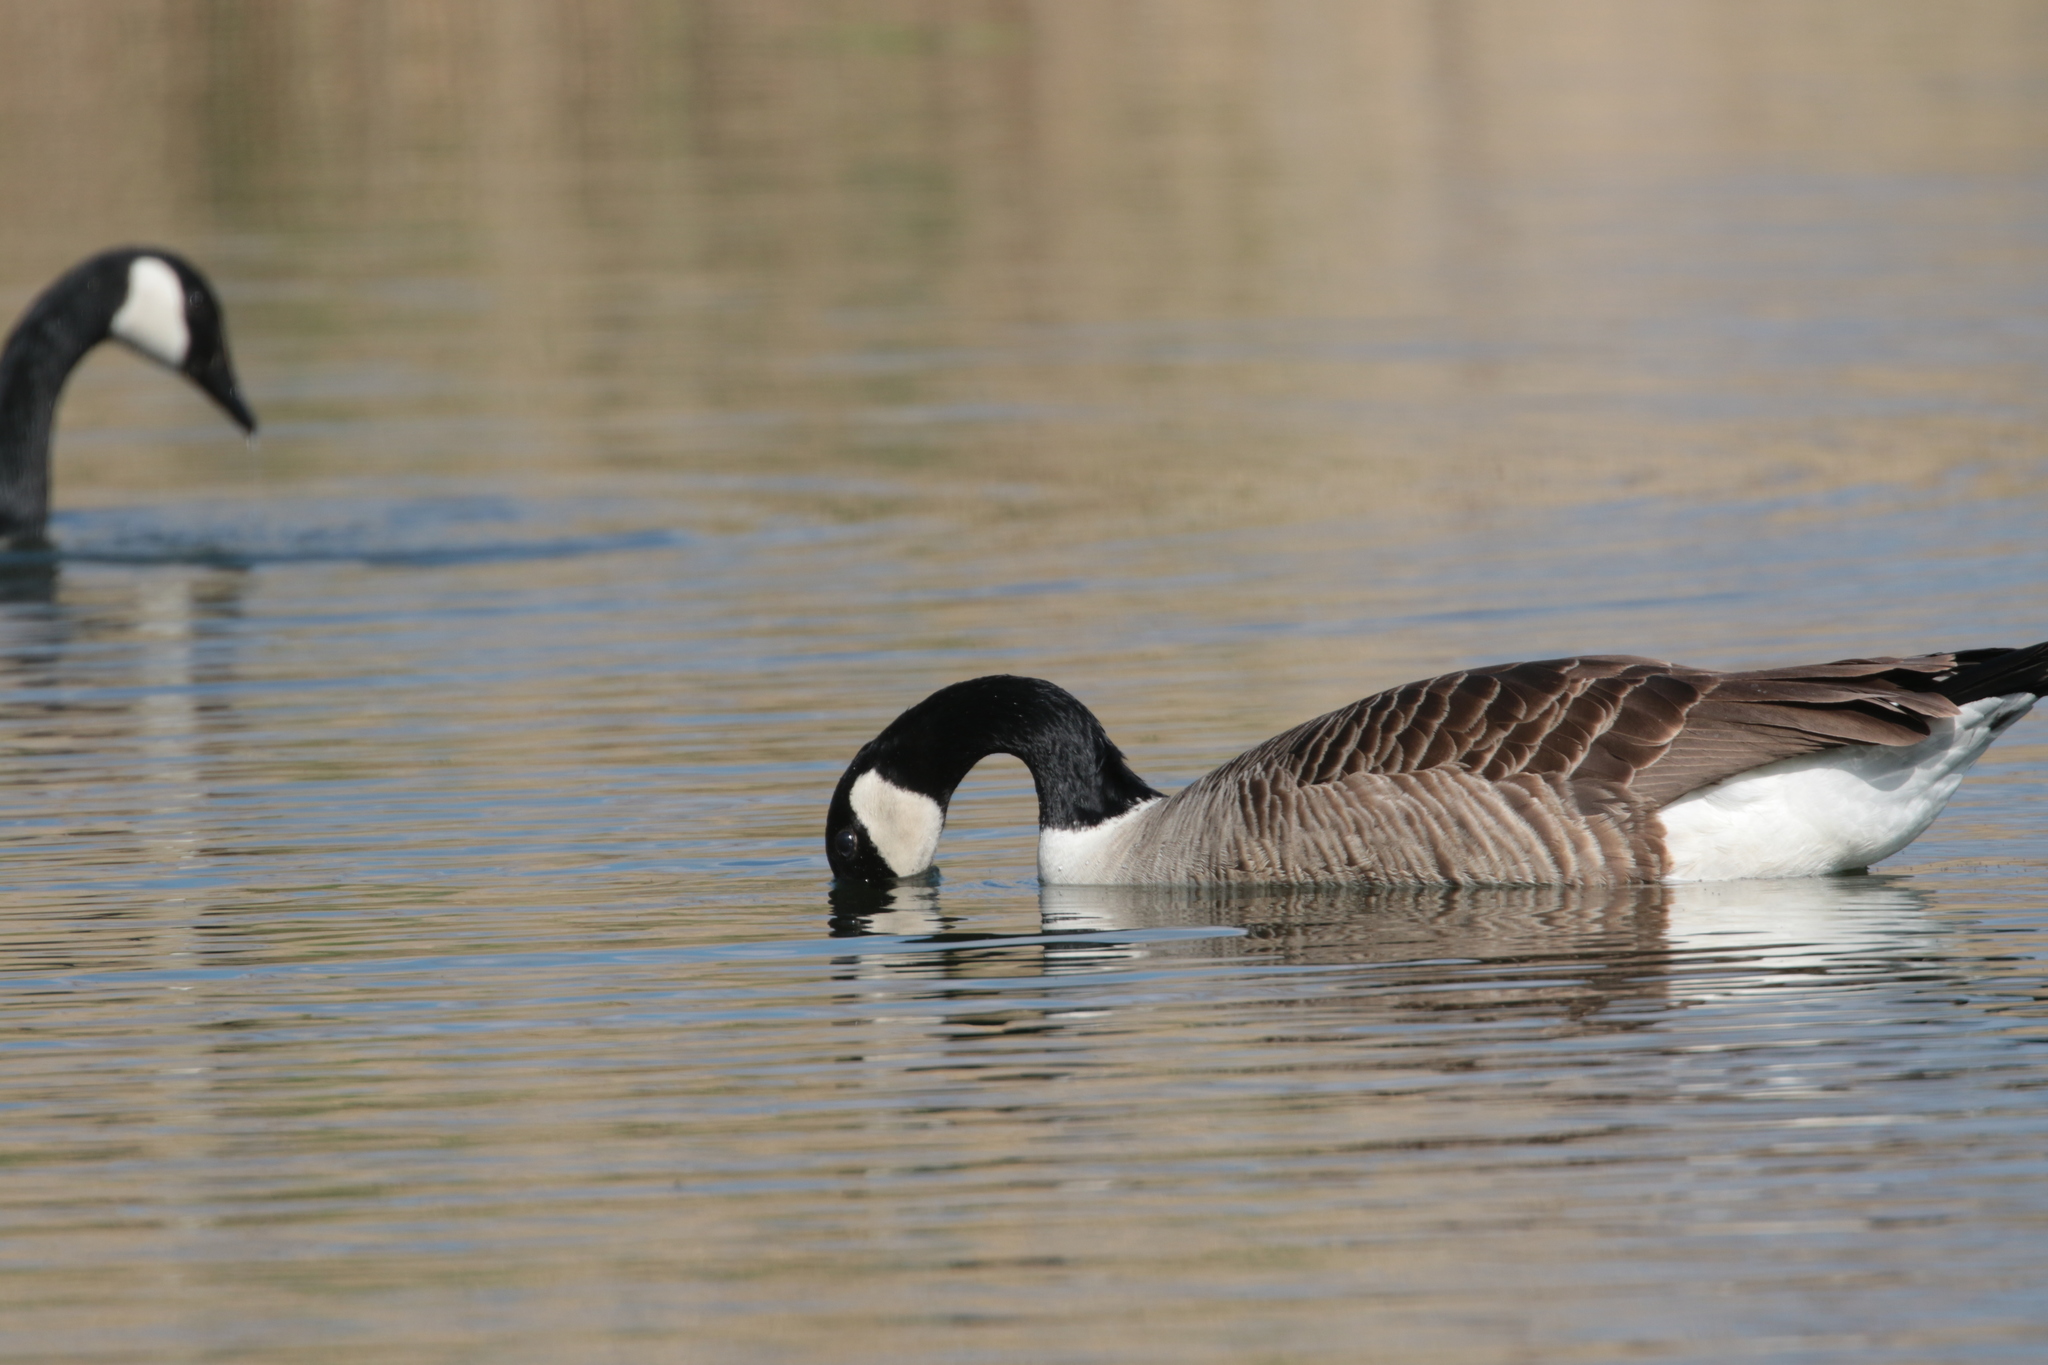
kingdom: Animalia
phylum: Chordata
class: Aves
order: Anseriformes
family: Anatidae
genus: Branta
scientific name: Branta canadensis
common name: Canada goose
